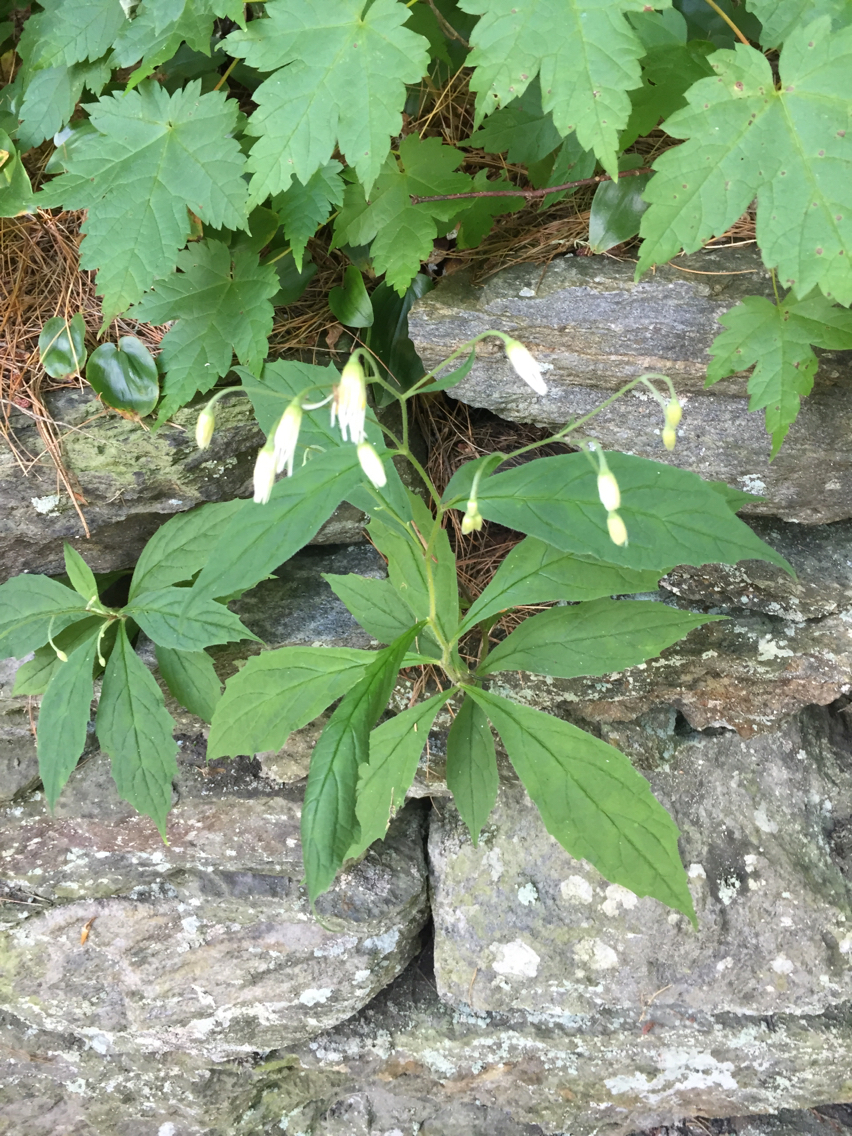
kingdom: Plantae
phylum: Tracheophyta
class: Magnoliopsida
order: Asterales
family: Asteraceae
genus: Oclemena
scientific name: Oclemena acuminata
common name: Mountain aster
